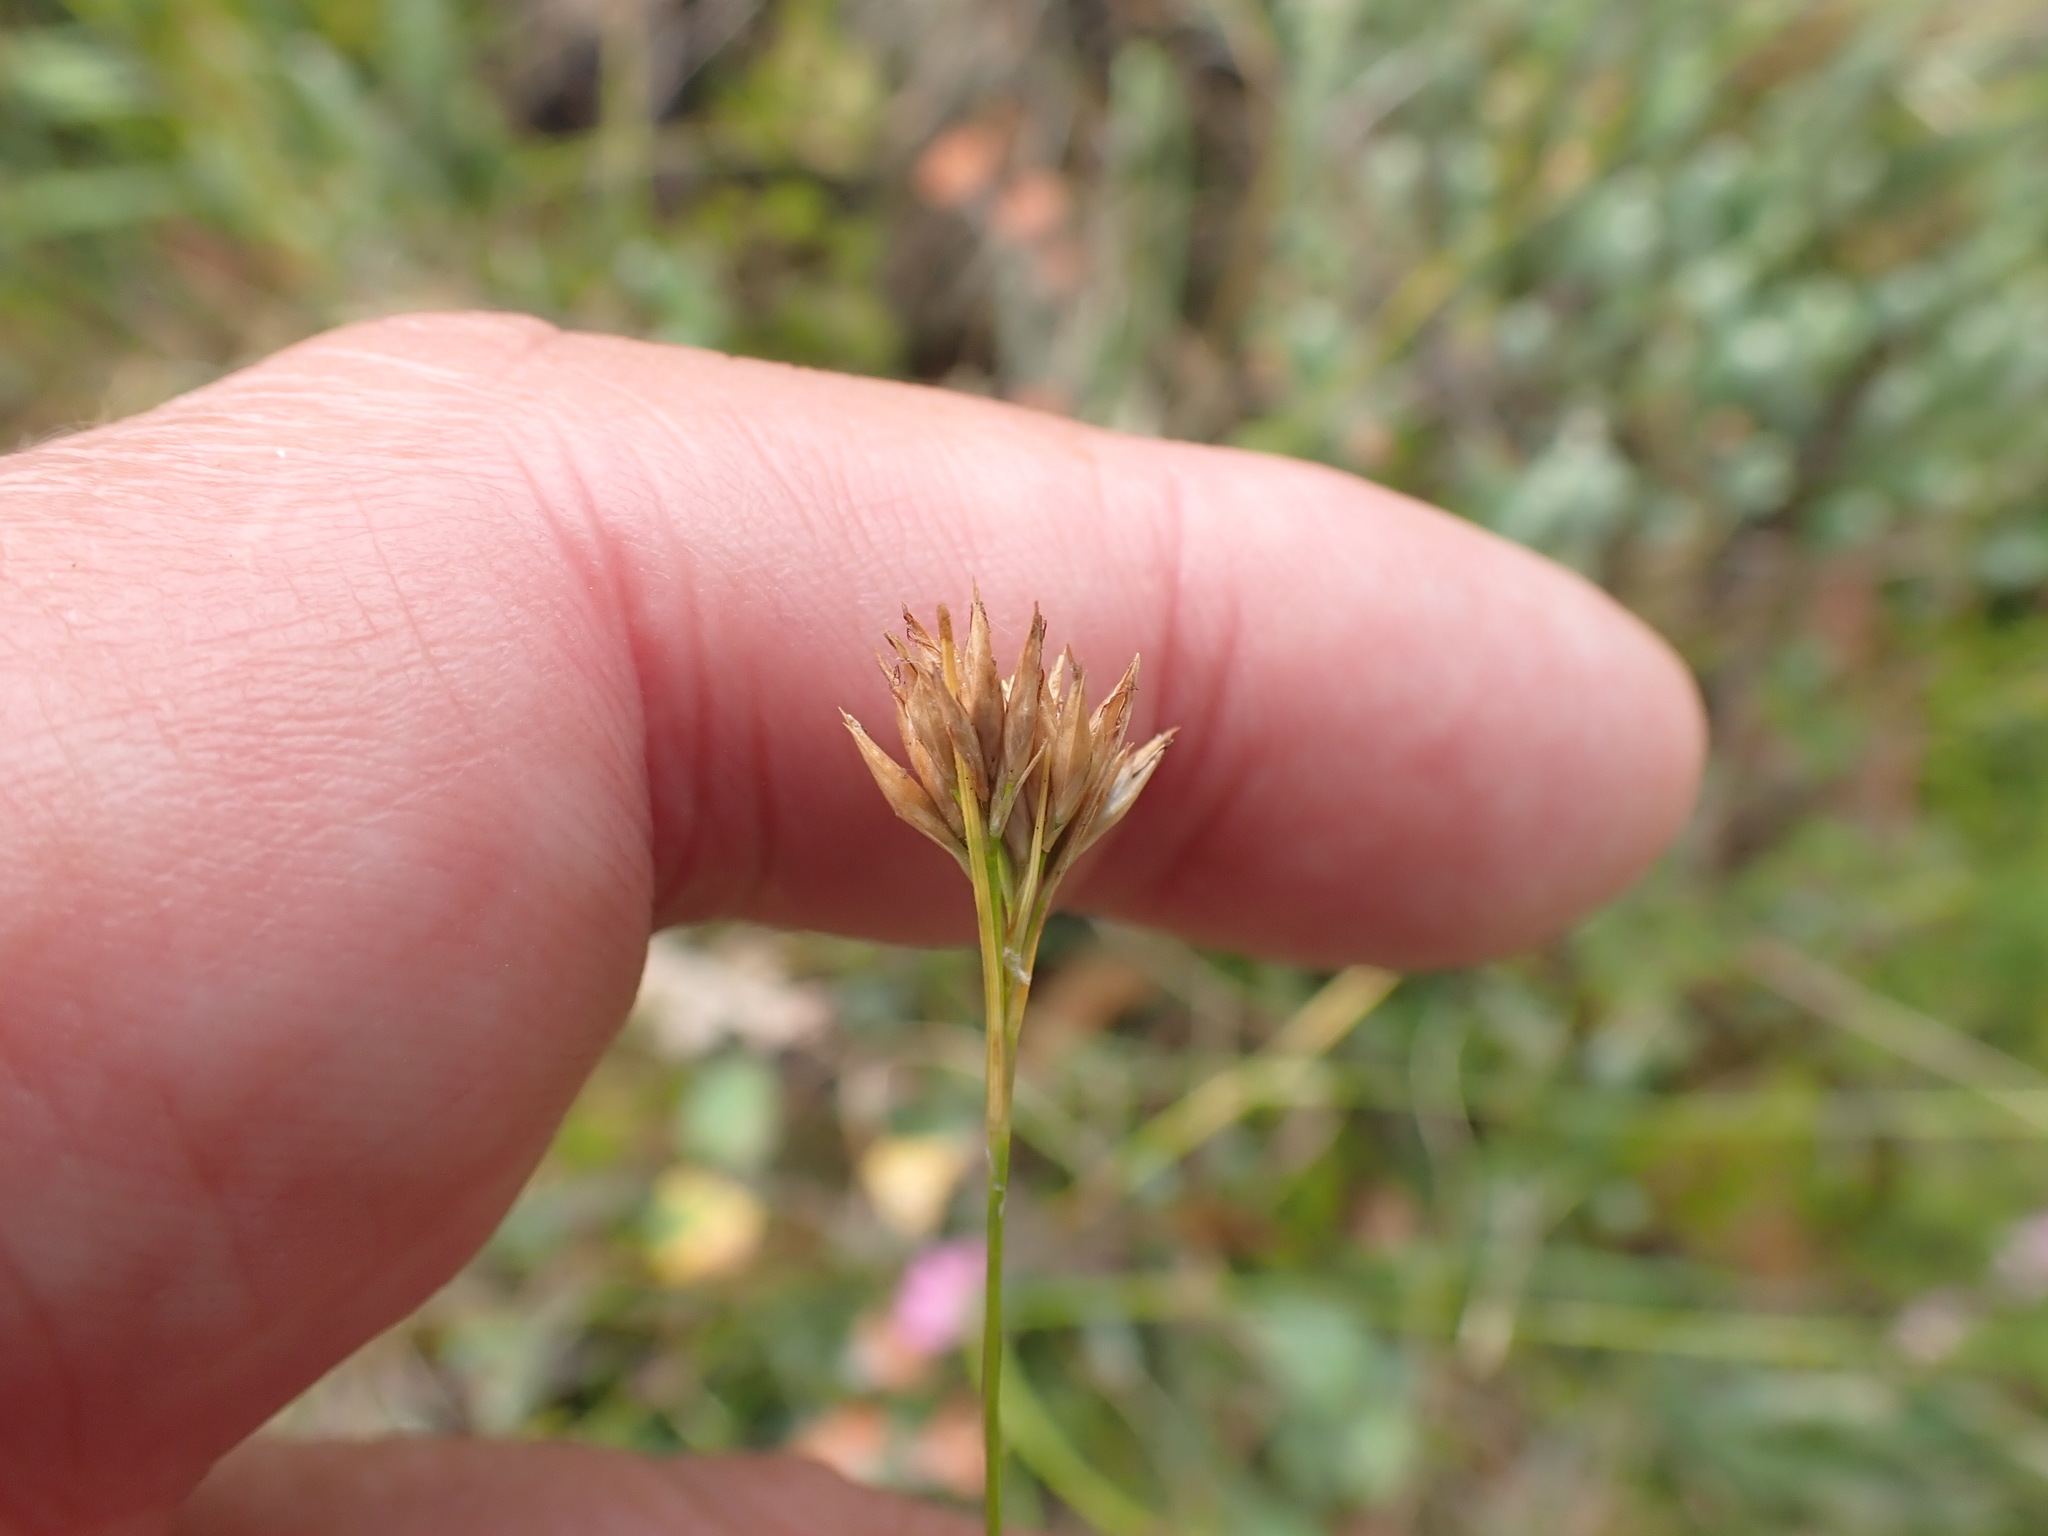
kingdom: Plantae
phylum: Tracheophyta
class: Liliopsida
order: Poales
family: Cyperaceae
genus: Rhynchospora
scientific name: Rhynchospora alba
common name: White beak-sedge
